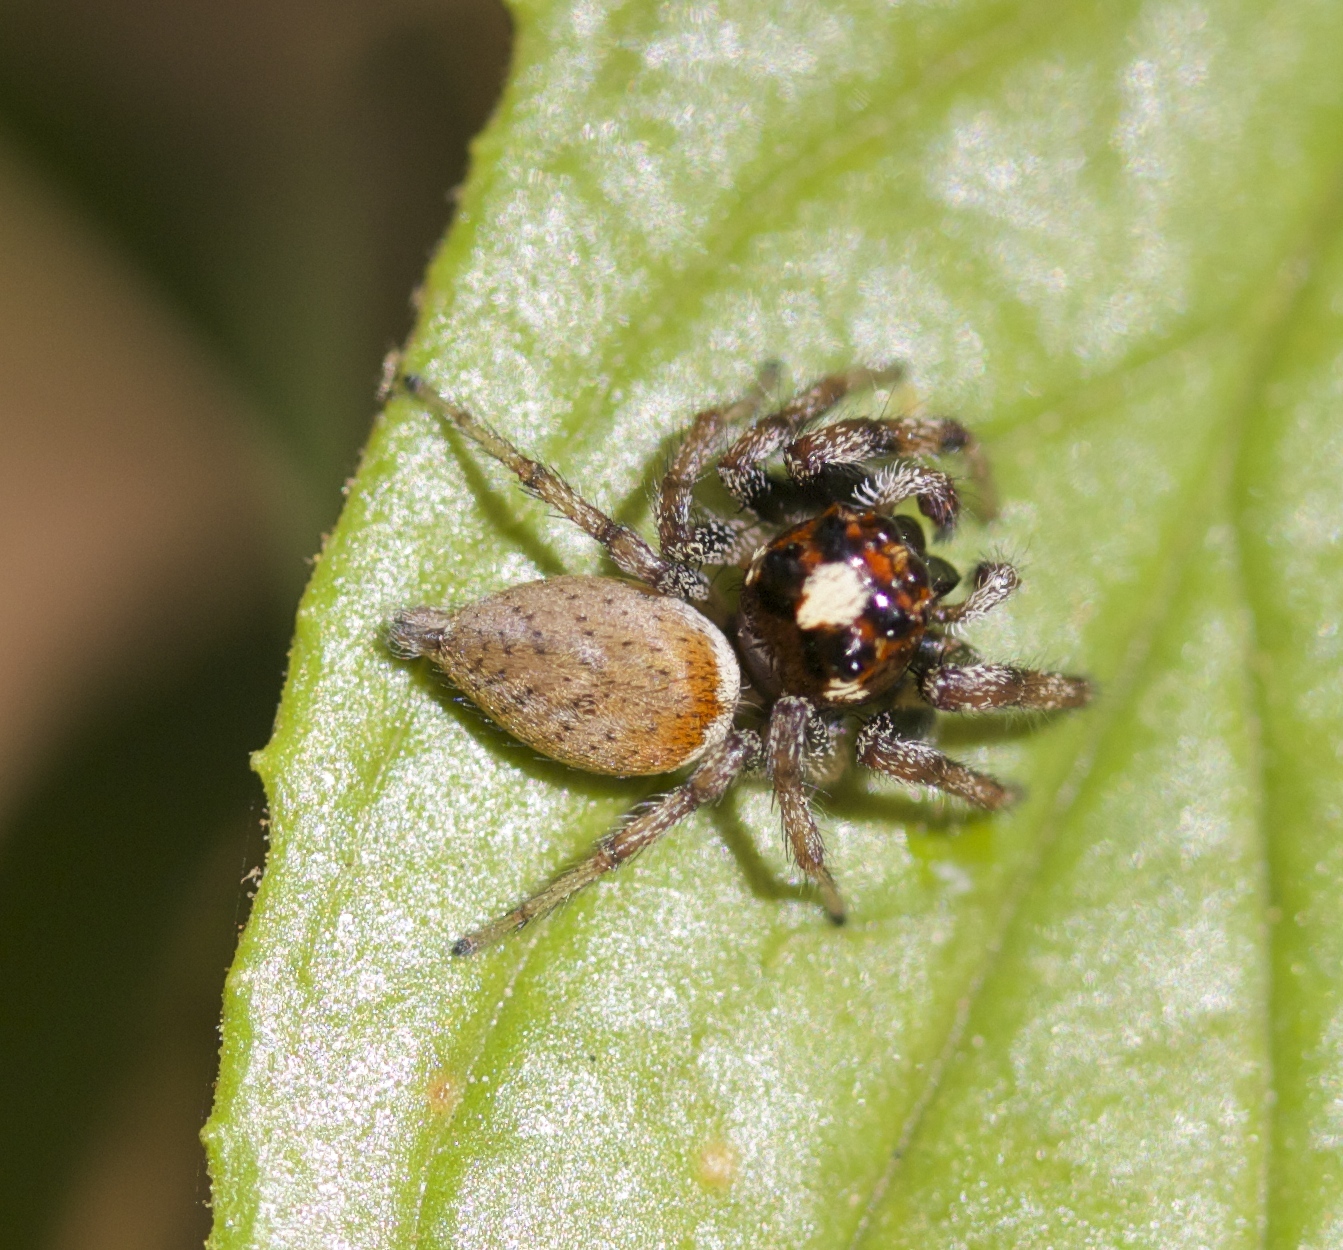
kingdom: Animalia
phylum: Arthropoda
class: Arachnida
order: Araneae
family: Salticidae
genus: Colonus
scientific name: Colonus hesperus
